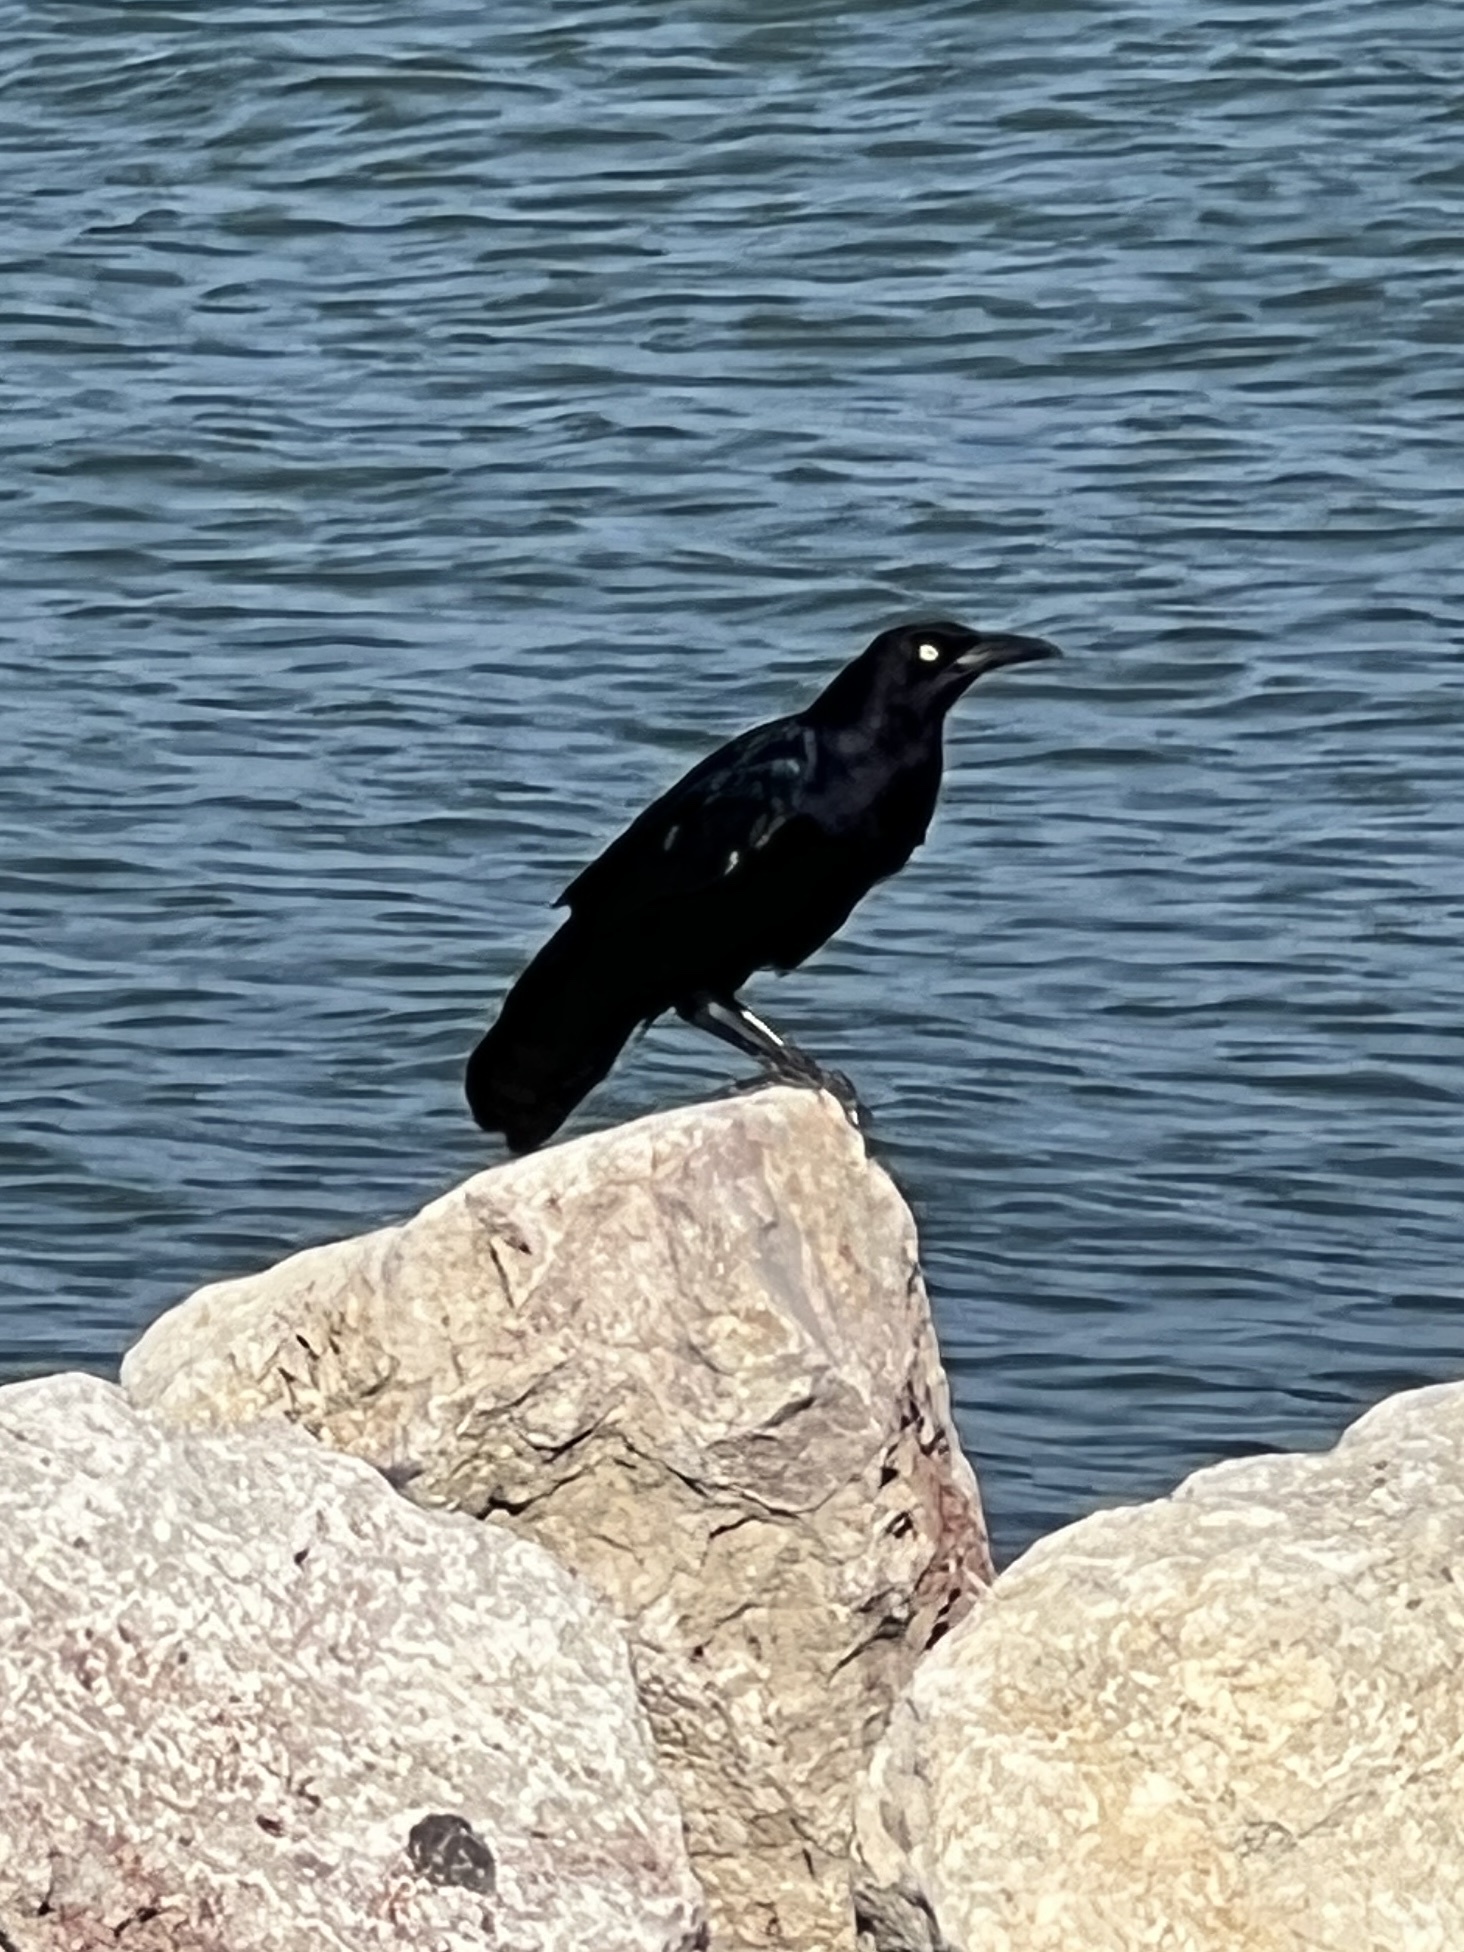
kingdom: Animalia
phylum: Chordata
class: Aves
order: Passeriformes
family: Icteridae
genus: Quiscalus
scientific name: Quiscalus mexicanus
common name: Great-tailed grackle
